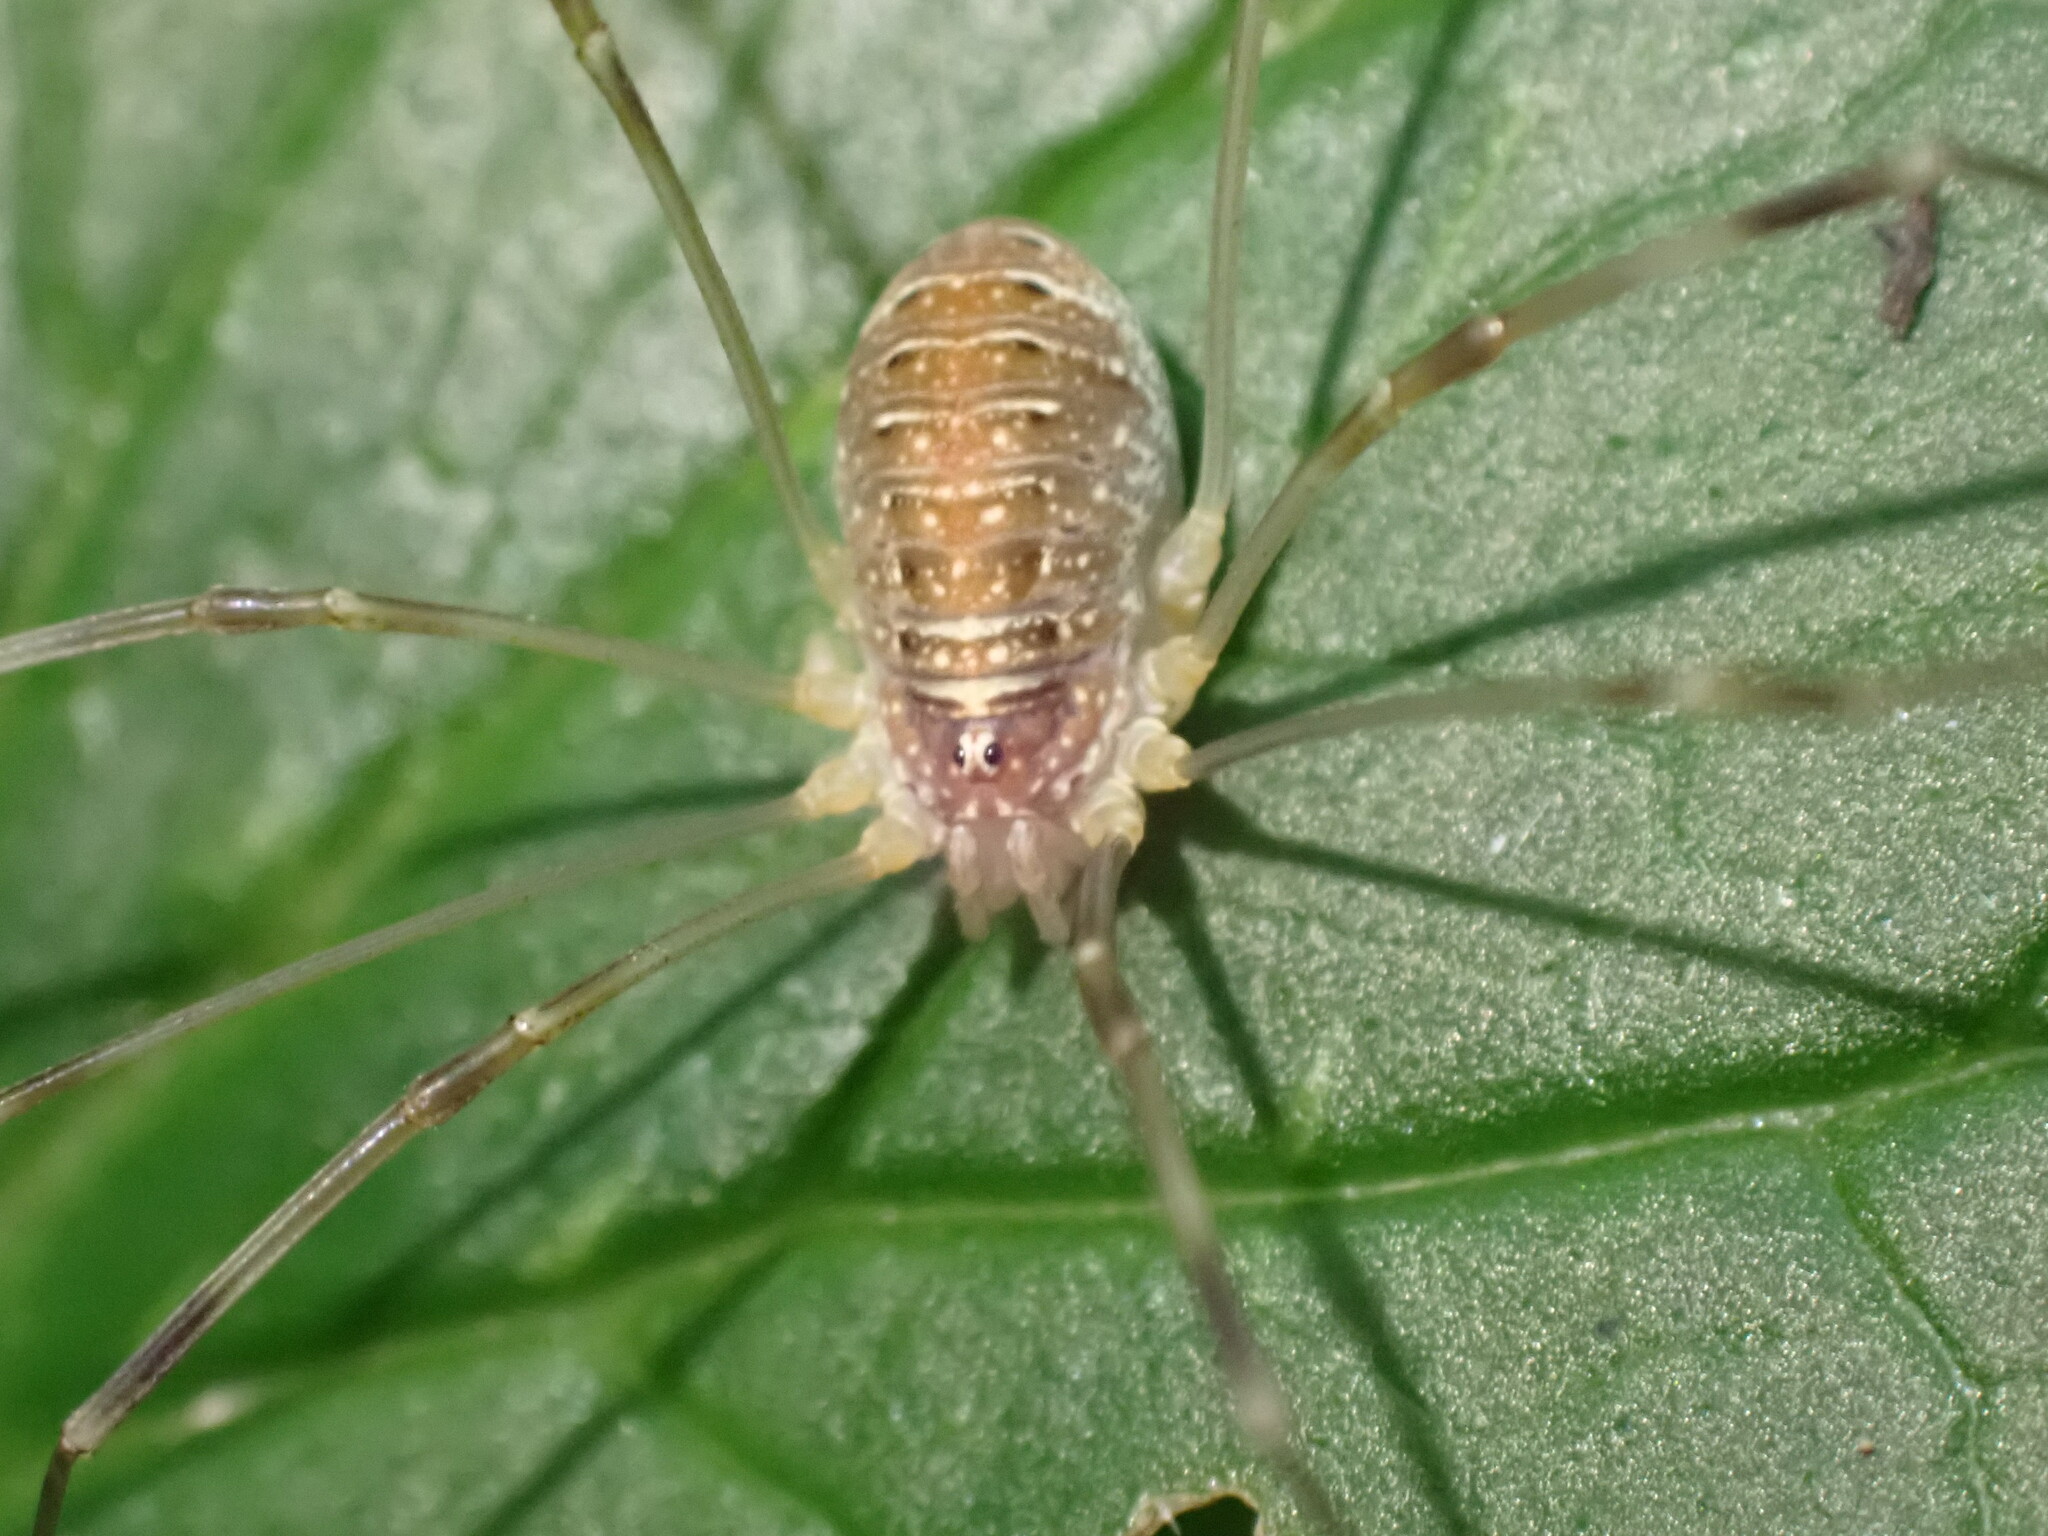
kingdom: Animalia
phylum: Arthropoda
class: Arachnida
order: Opiliones
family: Phalangiidae
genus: Opilio
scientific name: Opilio canestrinii
